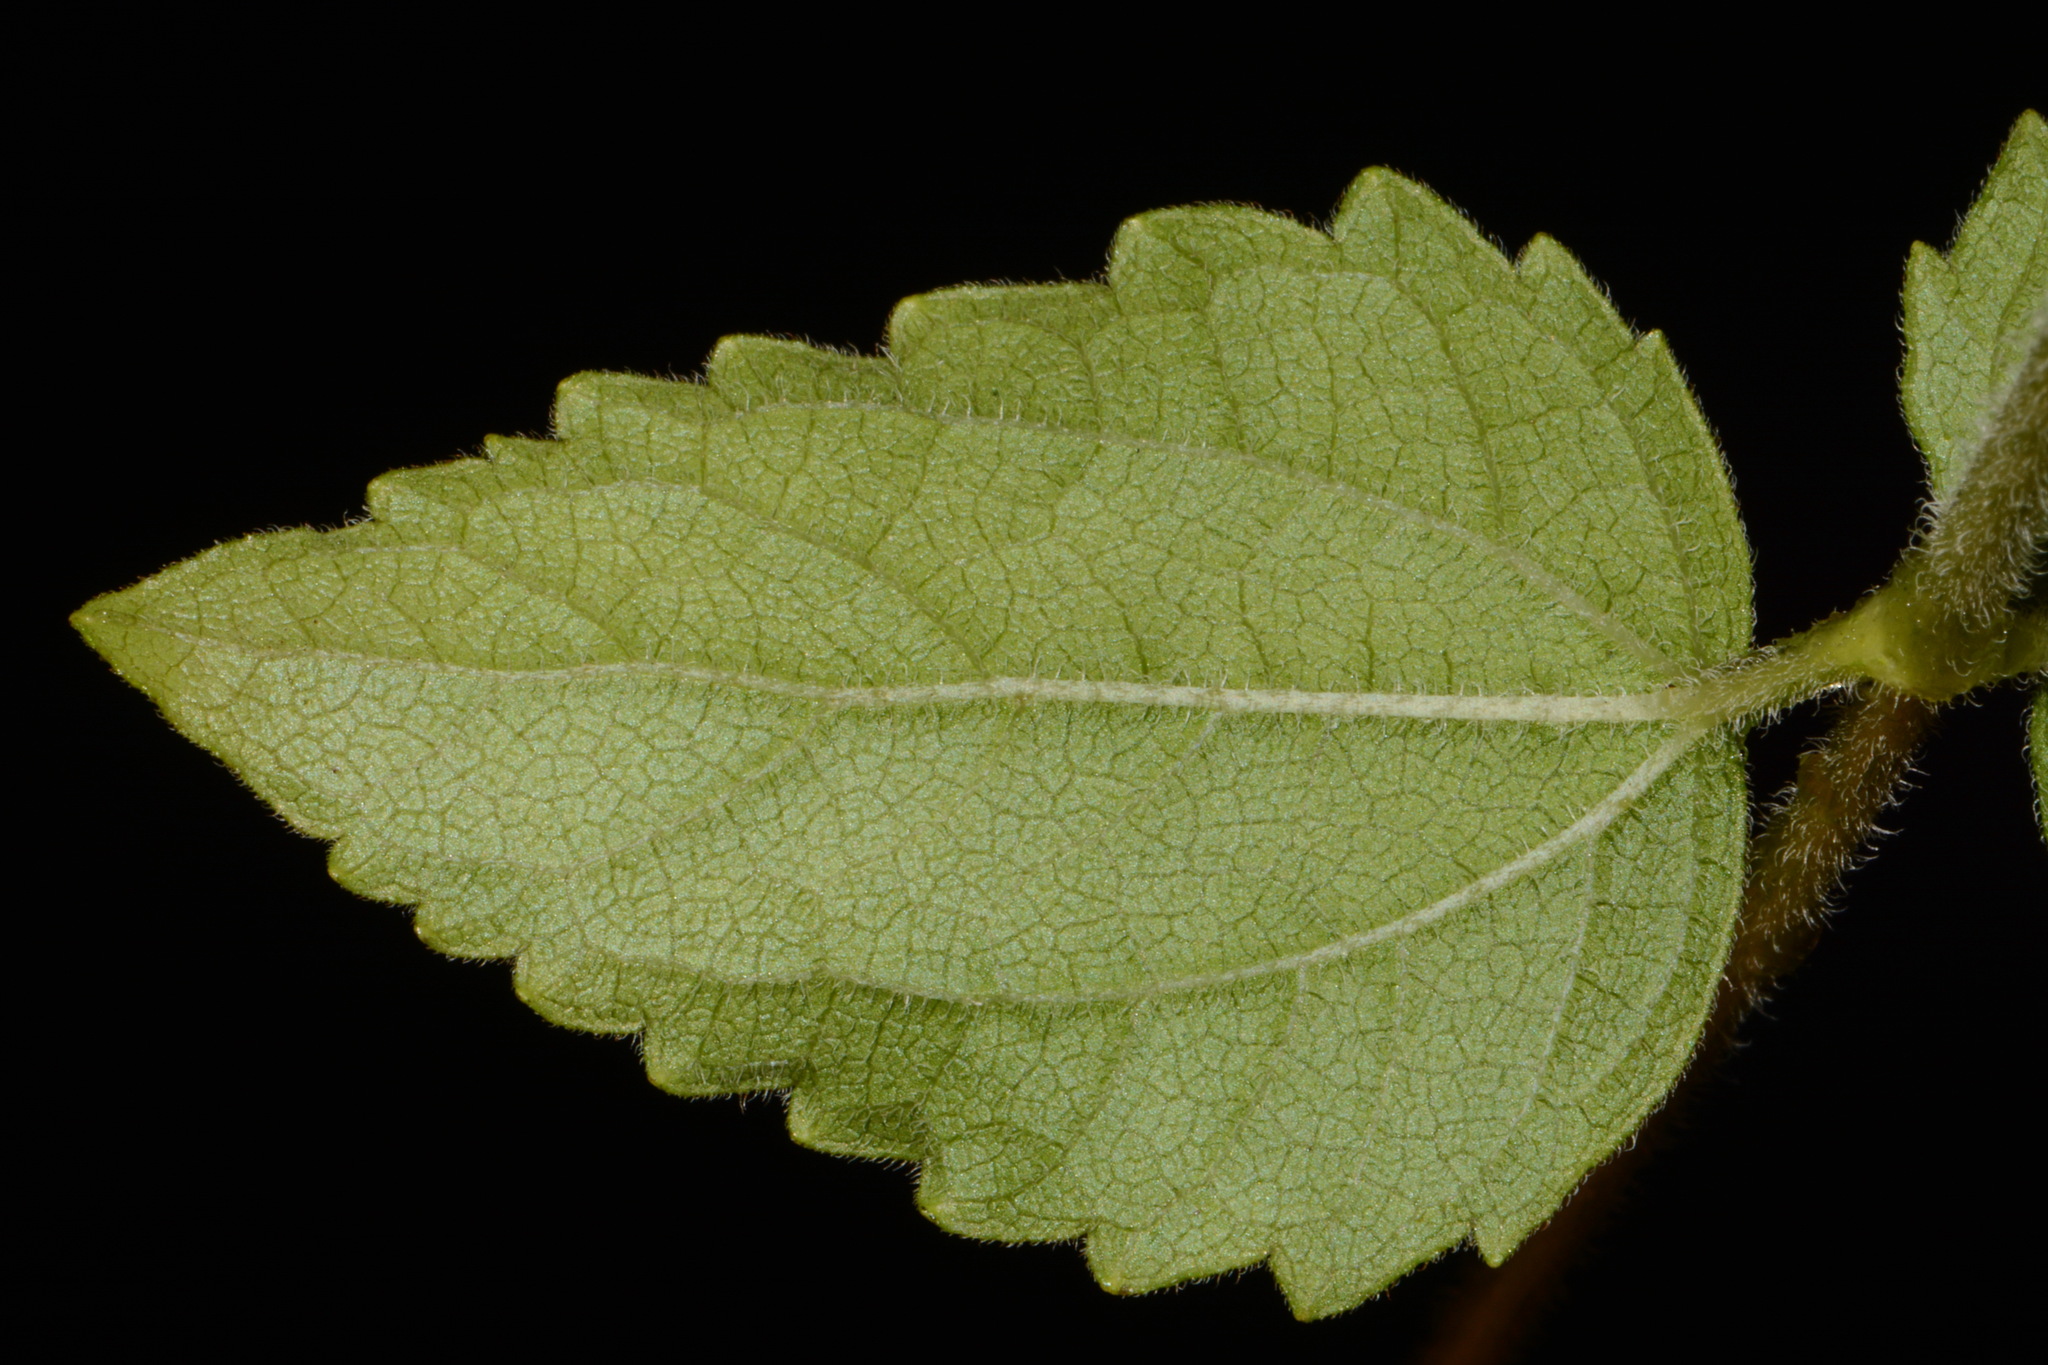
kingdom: Plantae
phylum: Tracheophyta
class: Magnoliopsida
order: Asterales
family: Asteraceae
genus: Ageratina
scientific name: Ageratina aromatica
